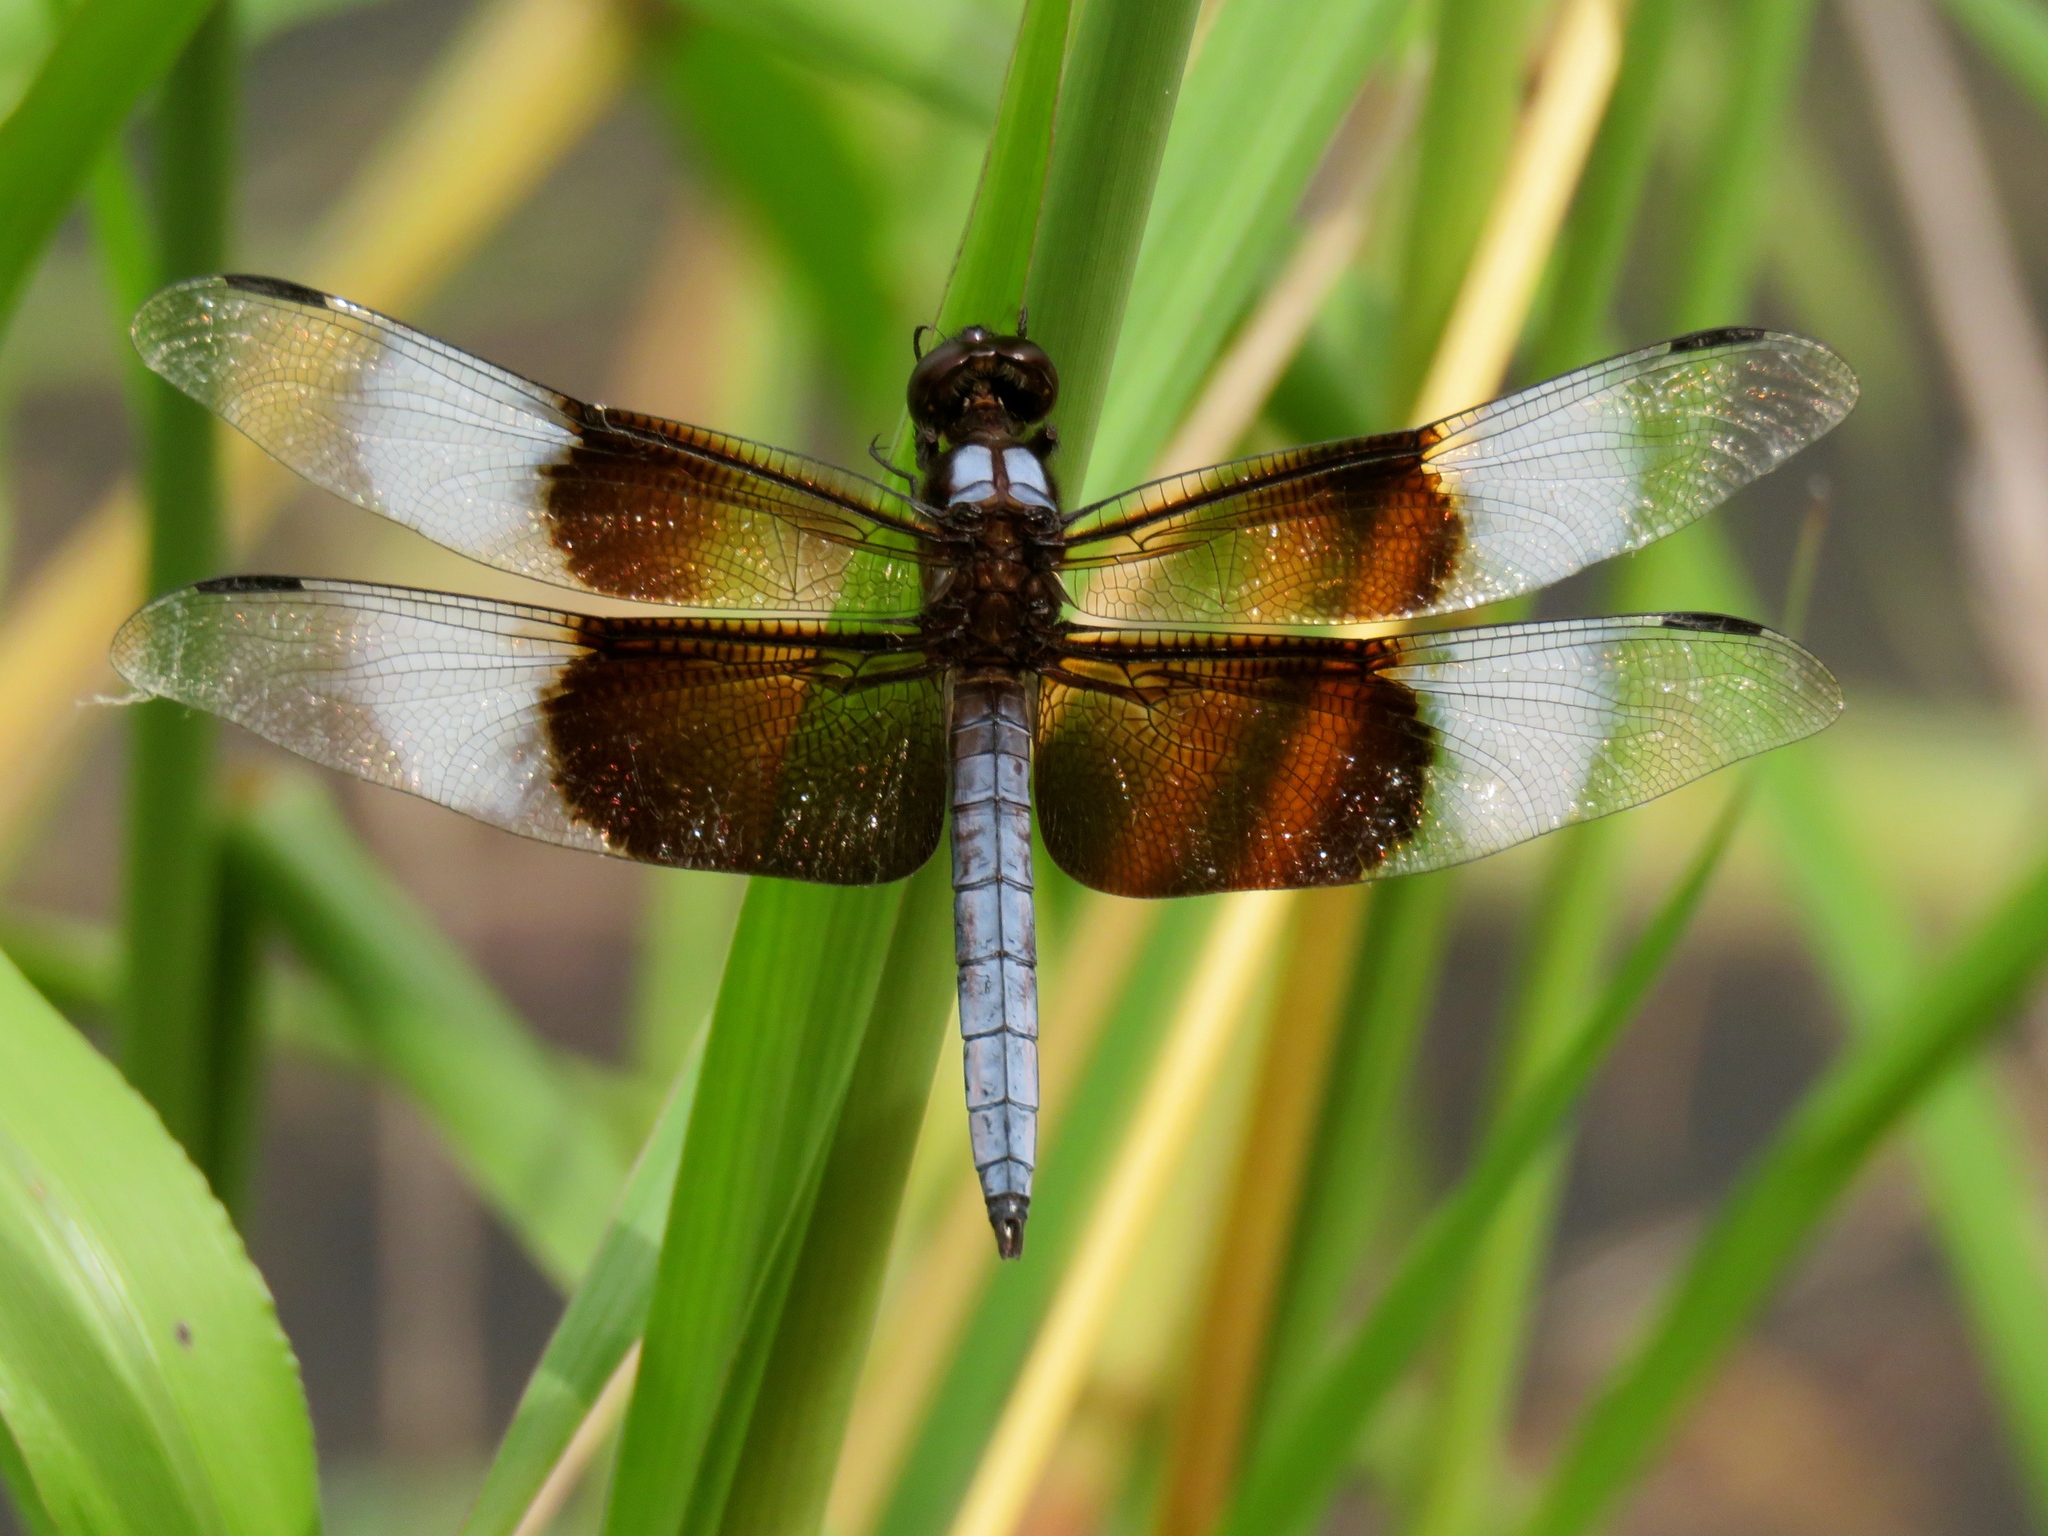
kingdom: Animalia
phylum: Arthropoda
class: Insecta
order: Odonata
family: Libellulidae
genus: Libellula
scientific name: Libellula luctuosa
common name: Widow skimmer
